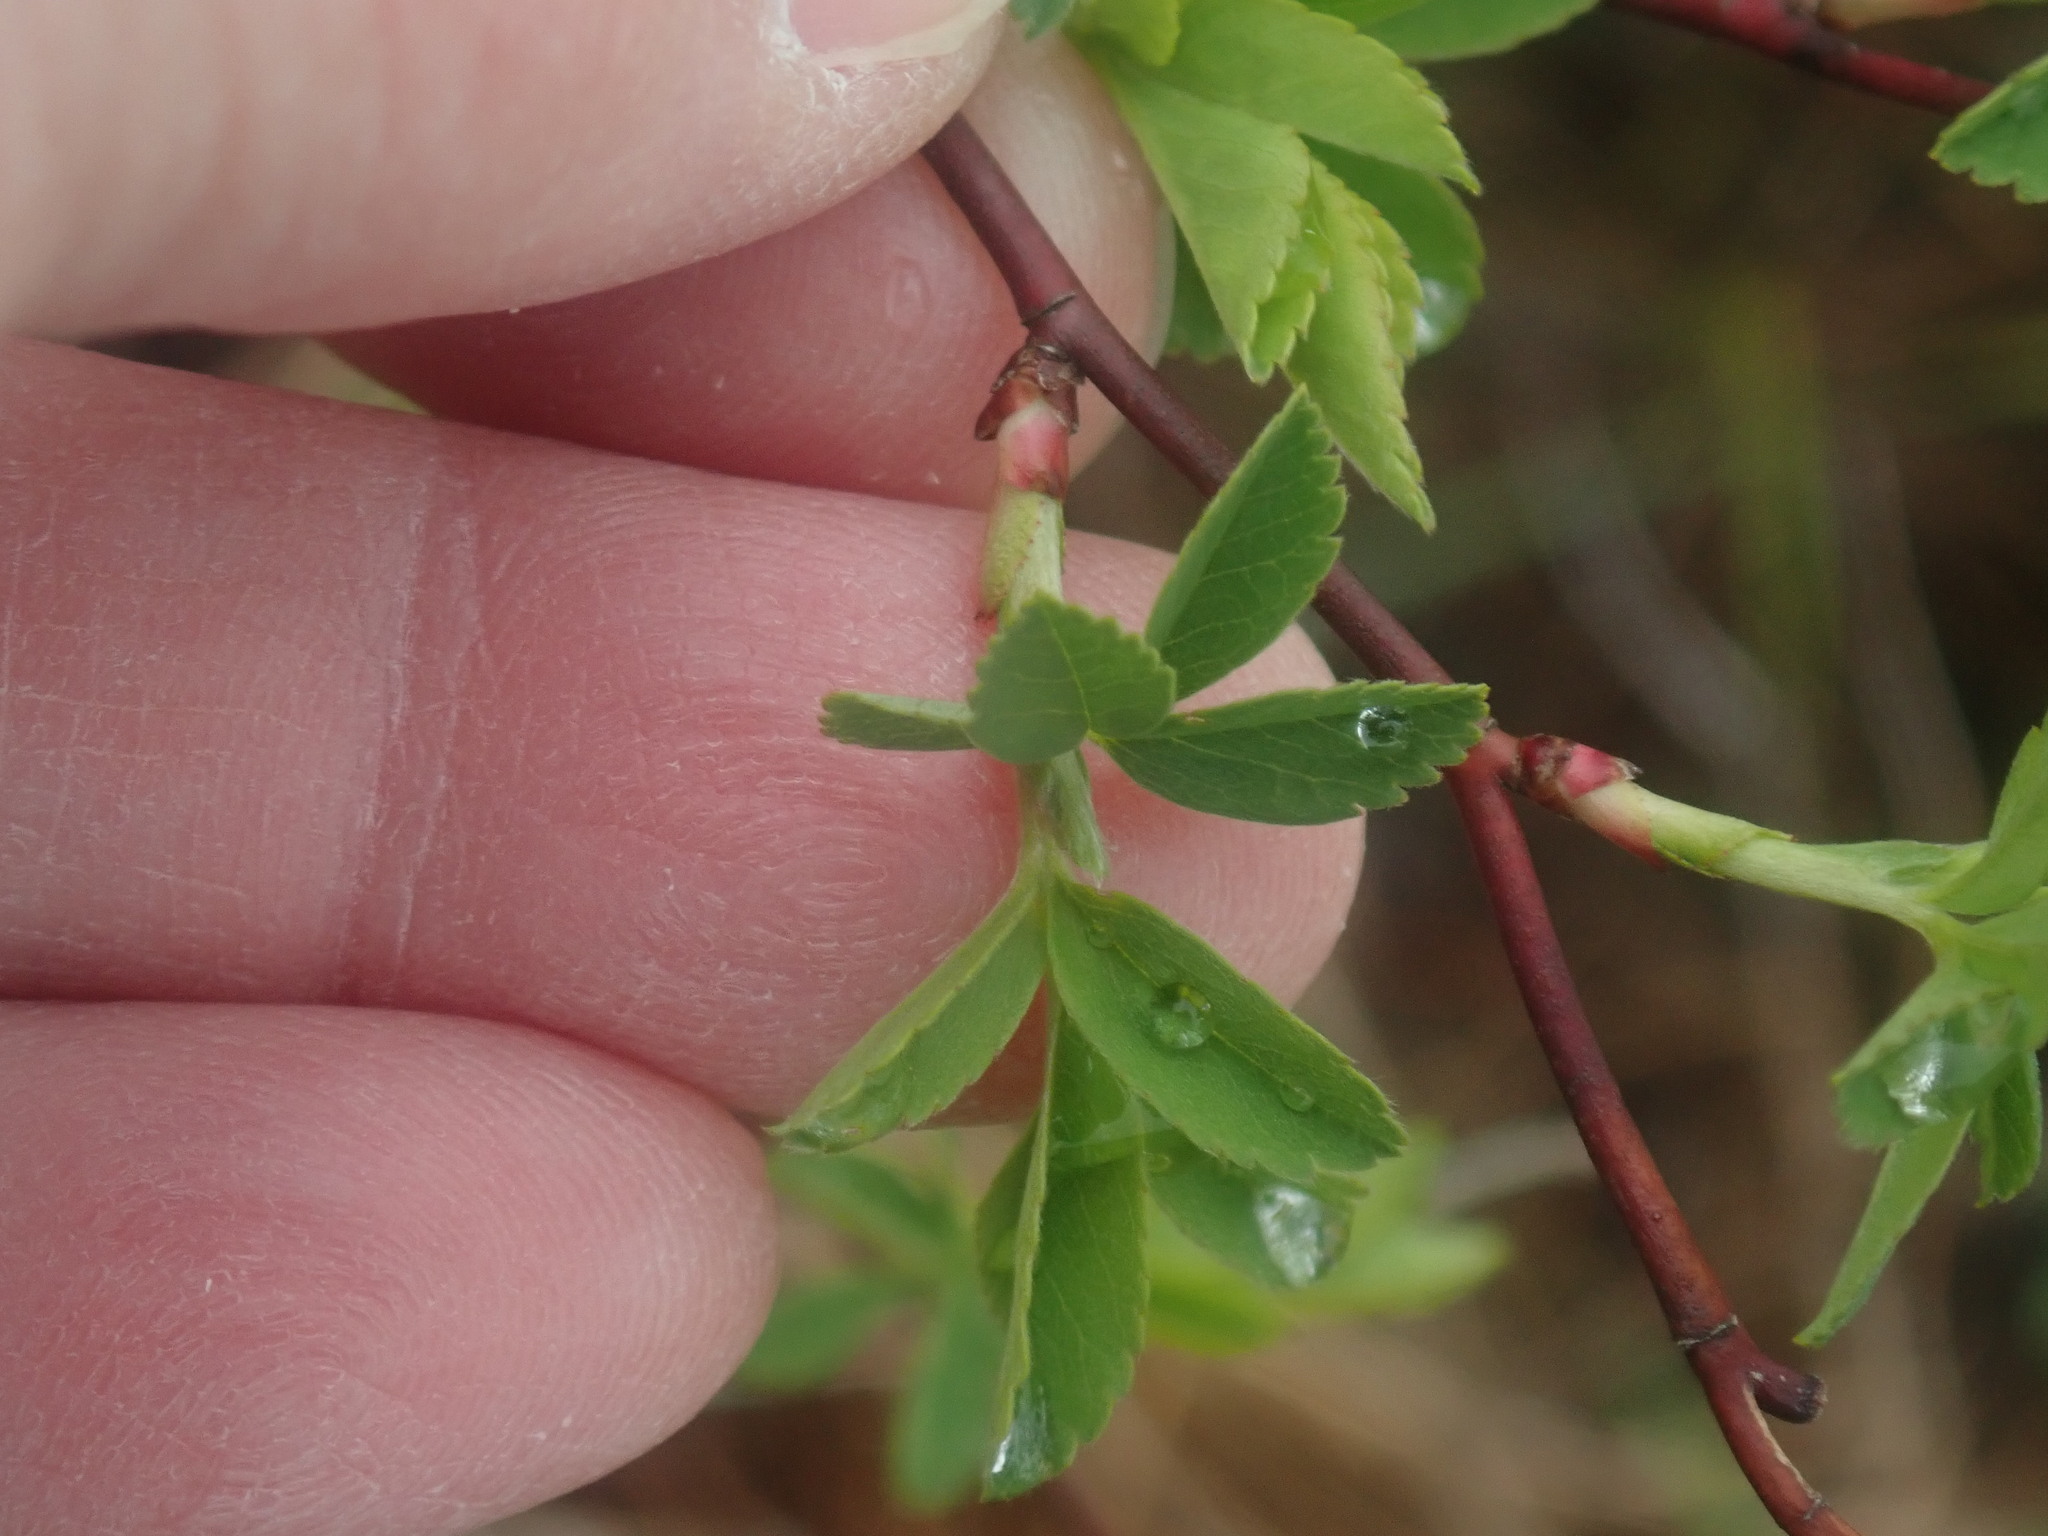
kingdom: Plantae
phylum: Tracheophyta
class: Magnoliopsida
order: Rosales
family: Rosaceae
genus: Rosa
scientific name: Rosa palustris
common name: Swamp rose
